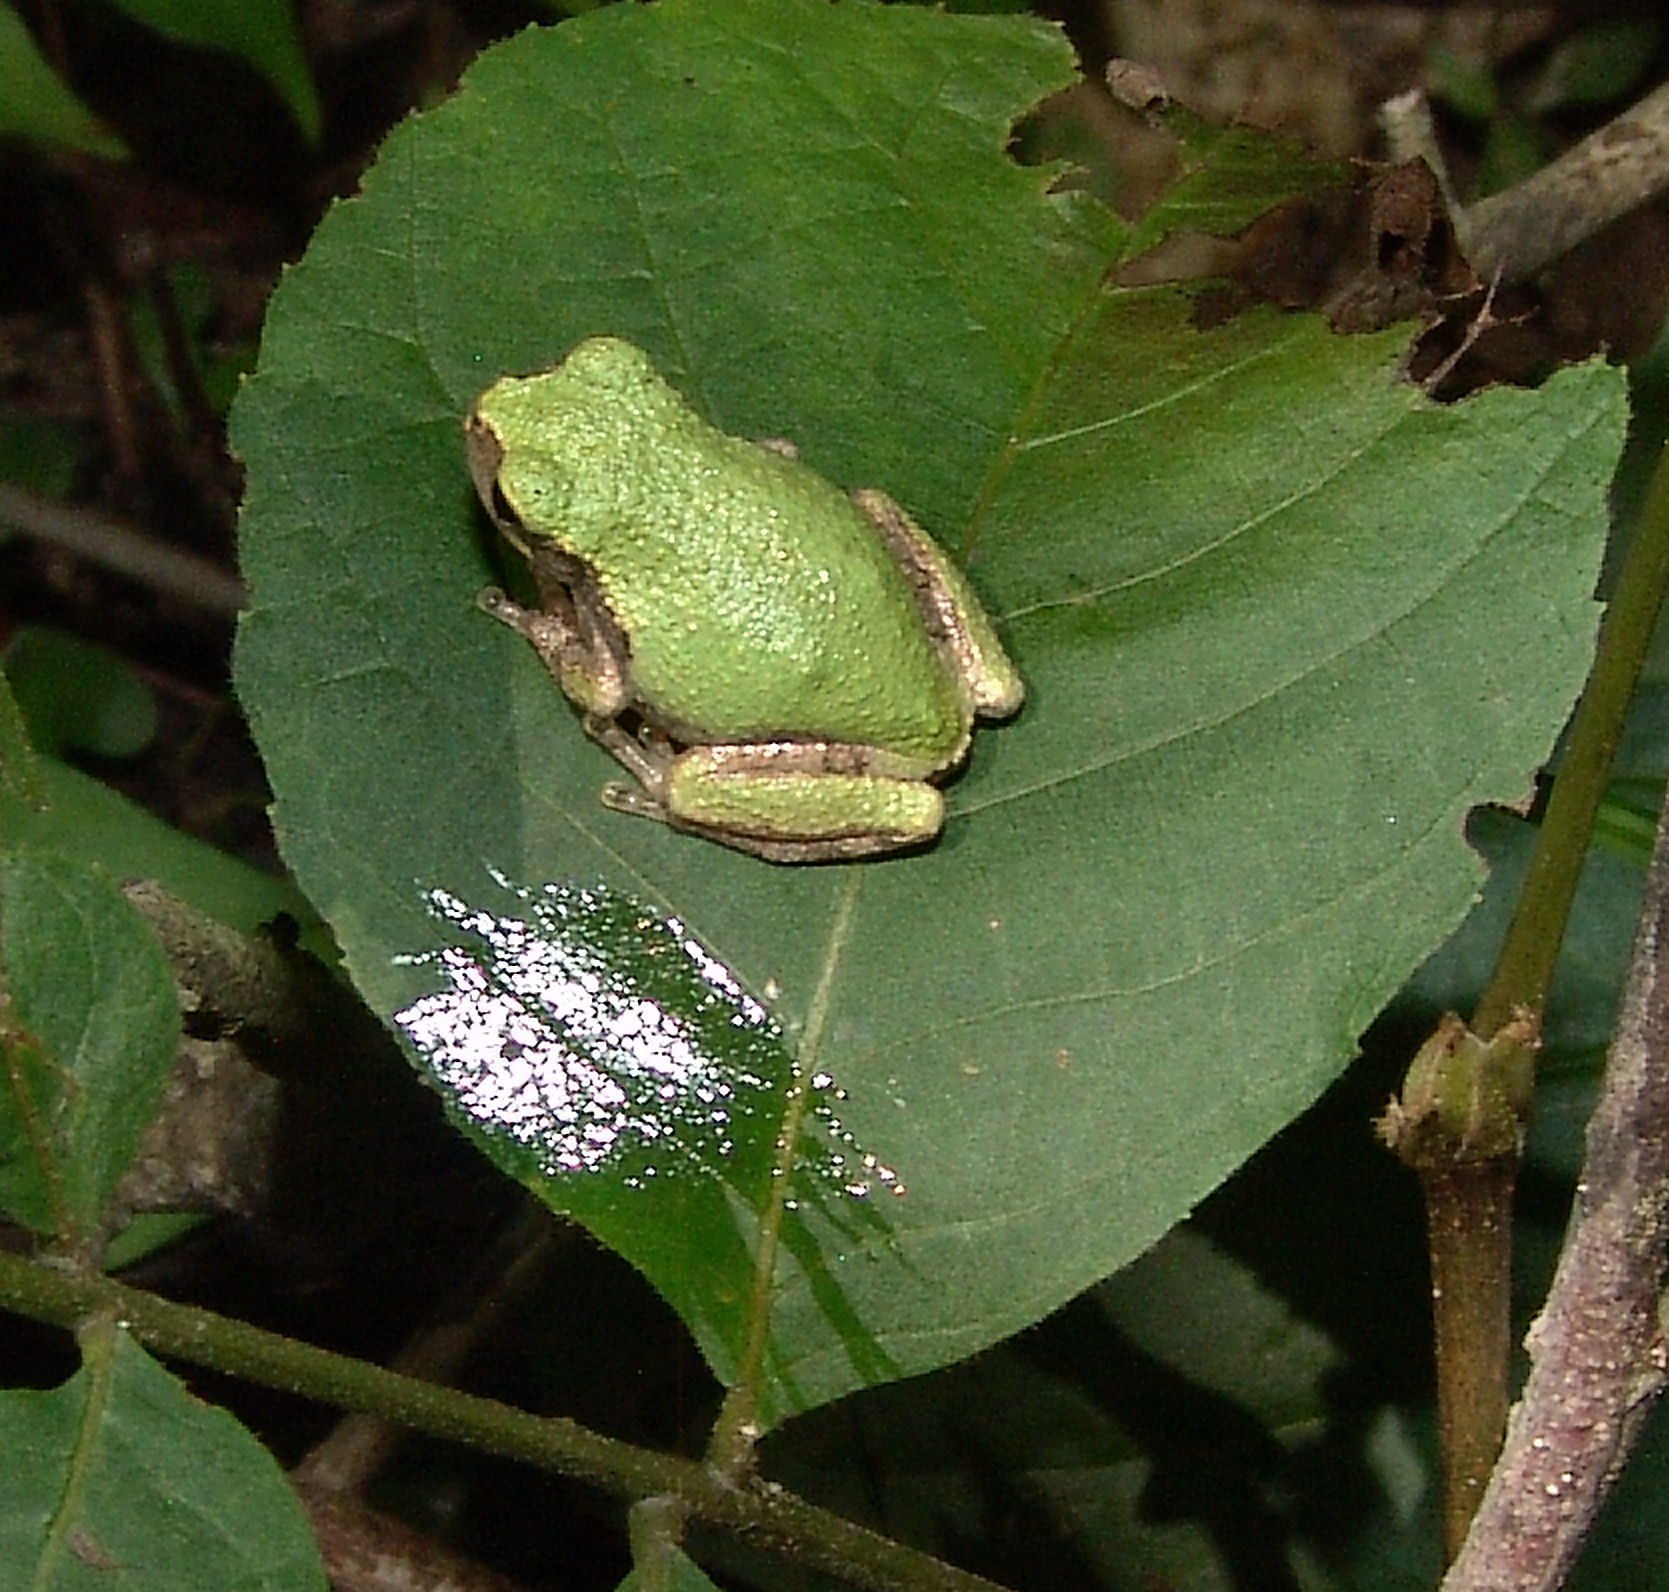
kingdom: Animalia
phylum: Chordata
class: Amphibia
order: Anura
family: Hylidae
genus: Dryophytes
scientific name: Dryophytes chrysoscelis
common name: Cope's gray treefrog
